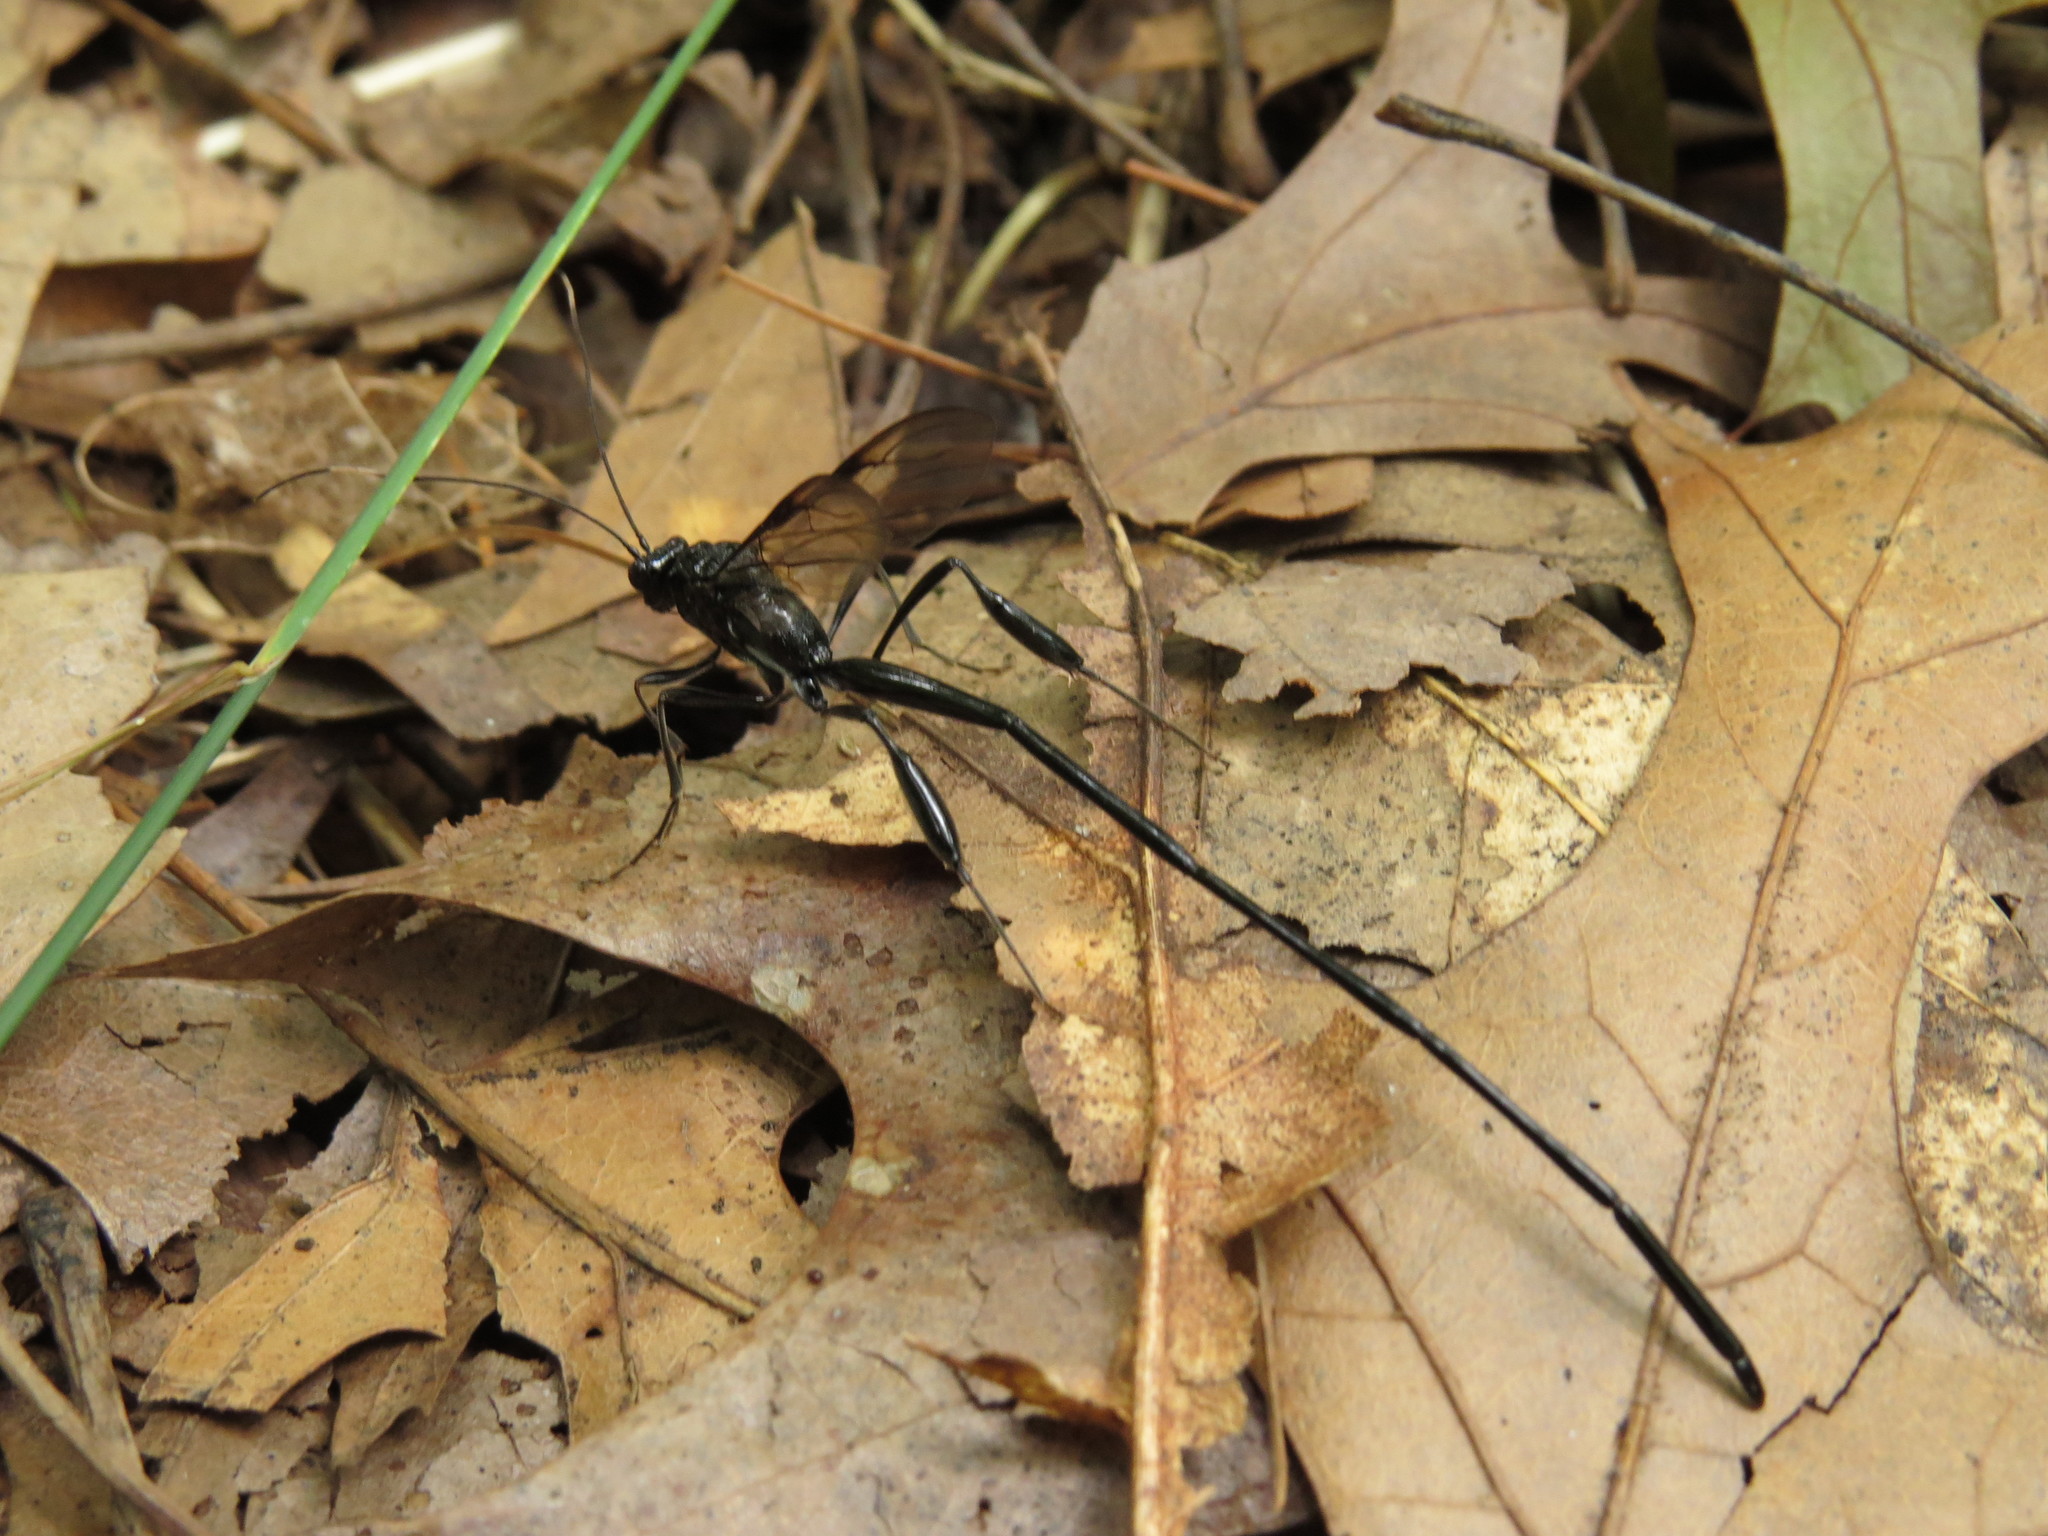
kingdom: Animalia
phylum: Arthropoda
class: Insecta
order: Hymenoptera
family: Pelecinidae
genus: Pelecinus
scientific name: Pelecinus polyturator
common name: American pelecinid wasp
